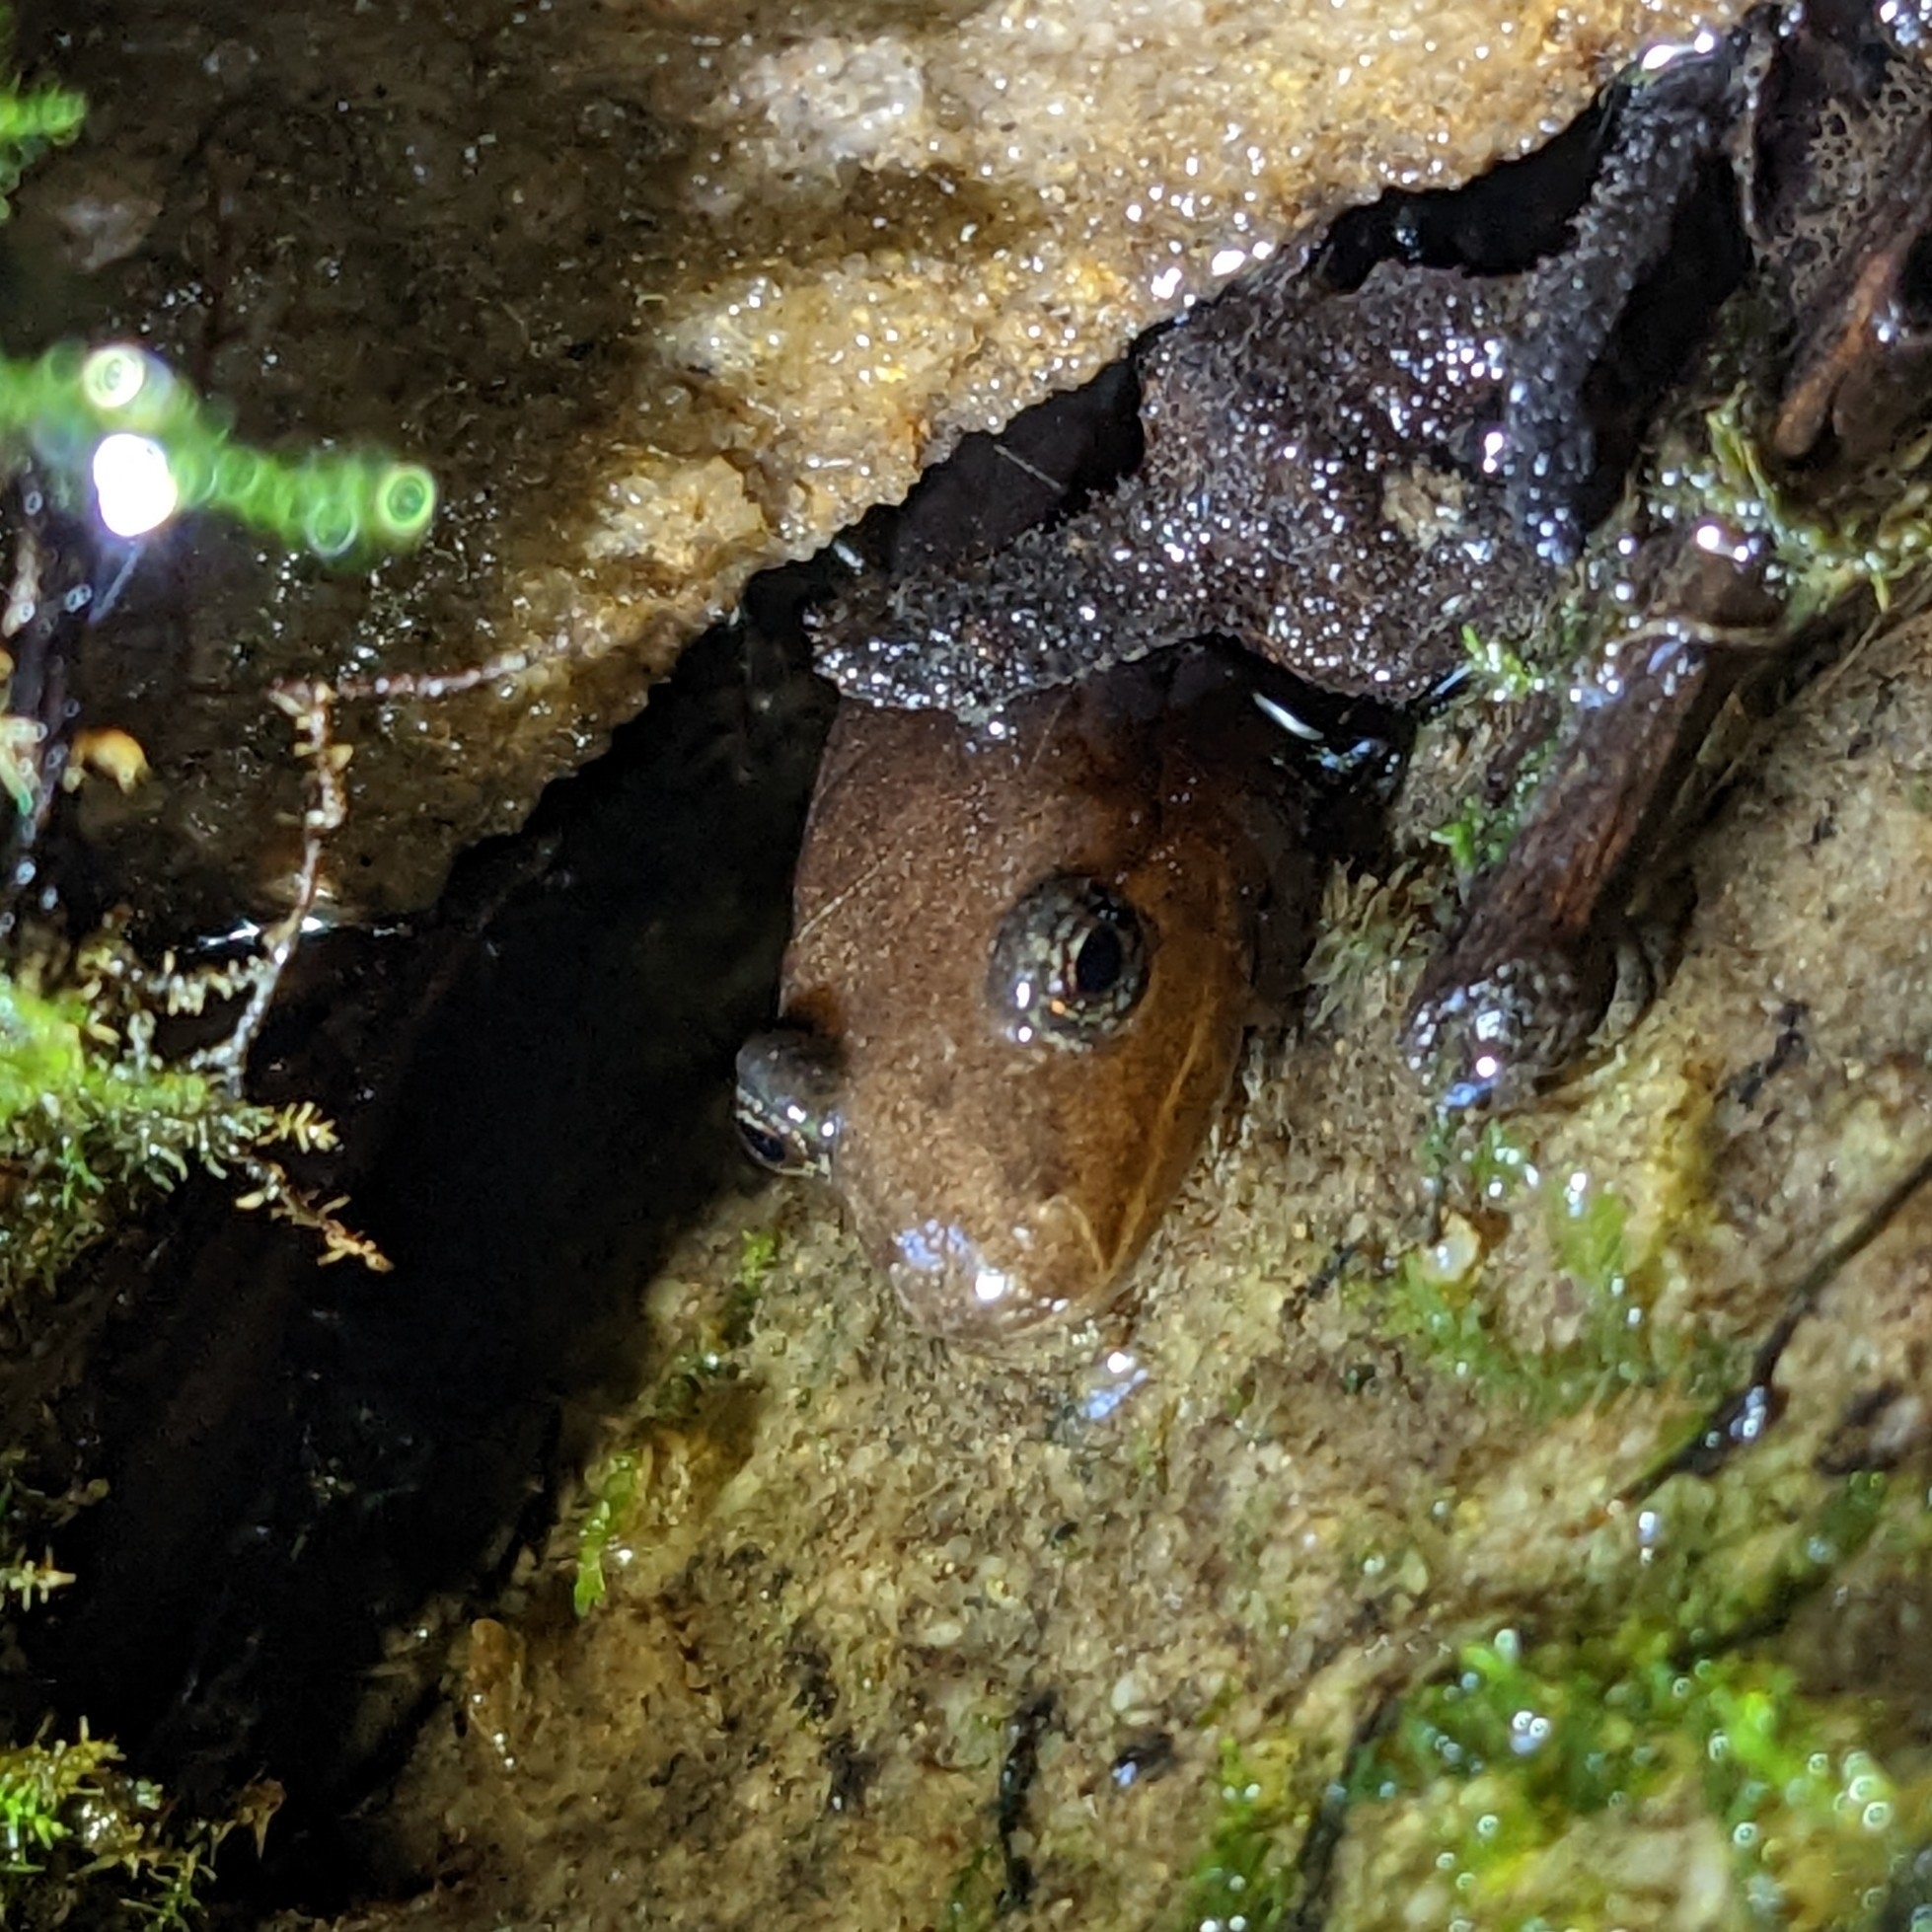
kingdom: Animalia
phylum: Chordata
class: Amphibia
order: Caudata
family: Plethodontidae
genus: Desmognathus
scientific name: Desmognathus monticola
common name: Seal salamander
